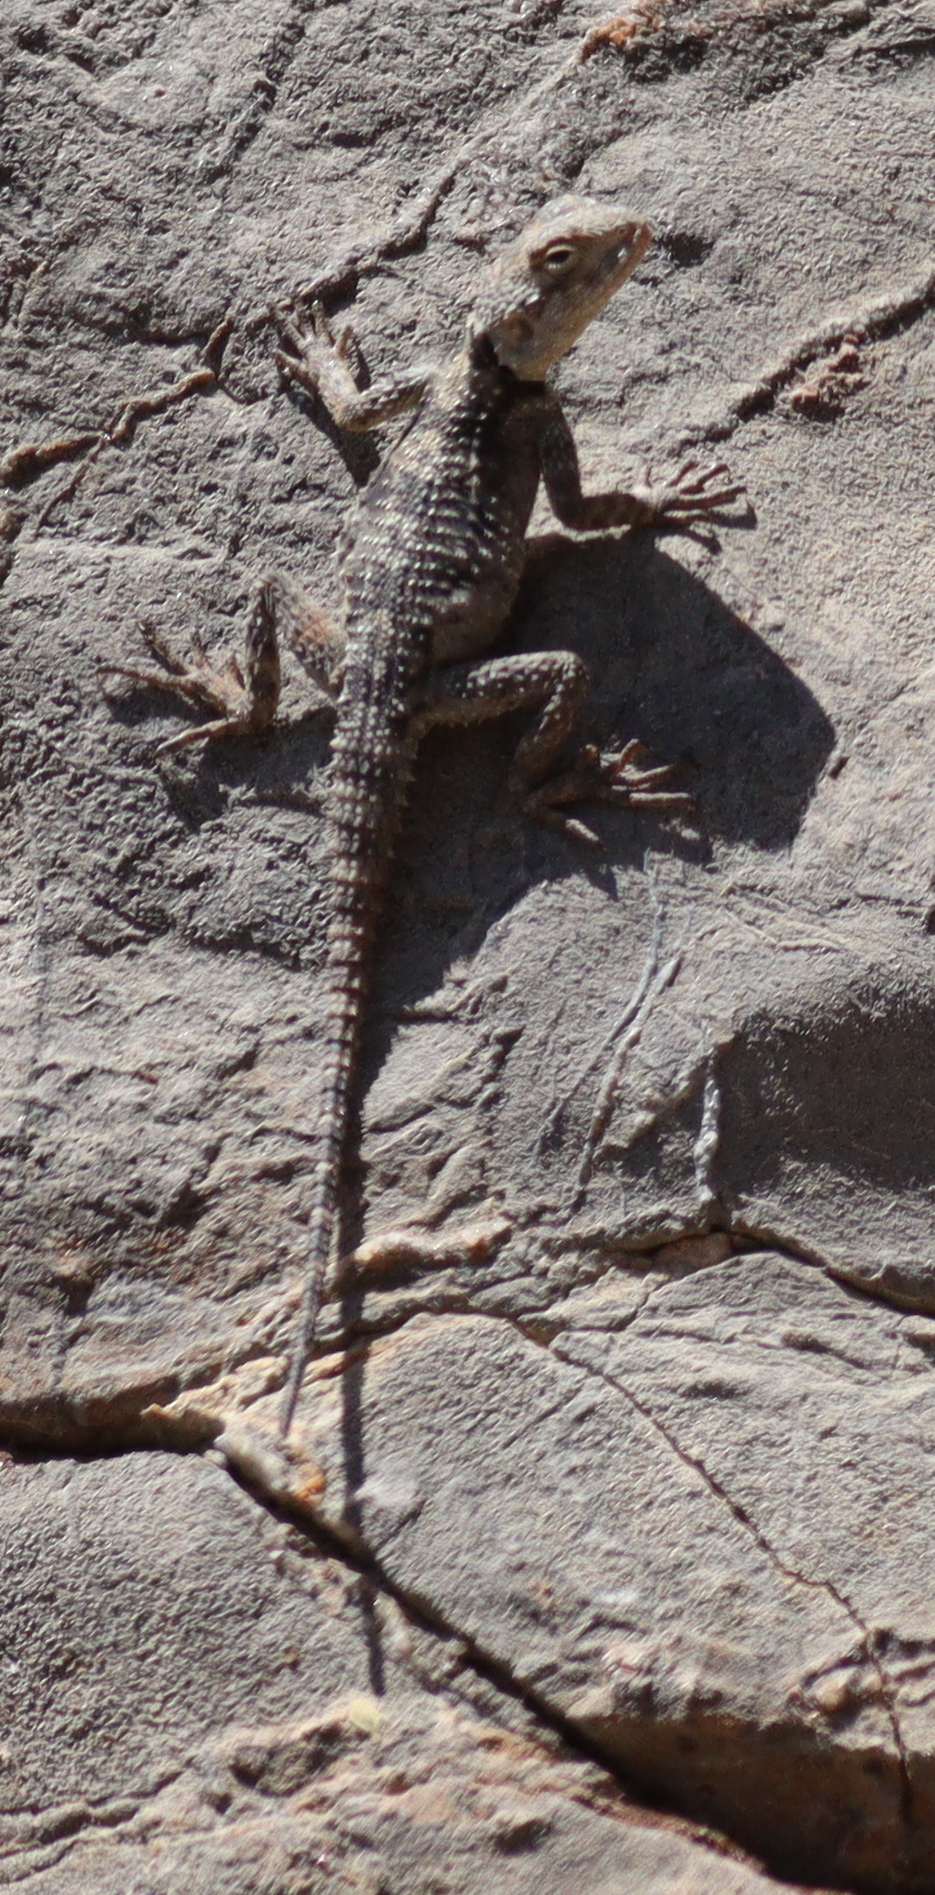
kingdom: Animalia
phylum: Chordata
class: Squamata
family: Agamidae
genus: Stellagama
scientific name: Stellagama stellio
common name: Starred agama
